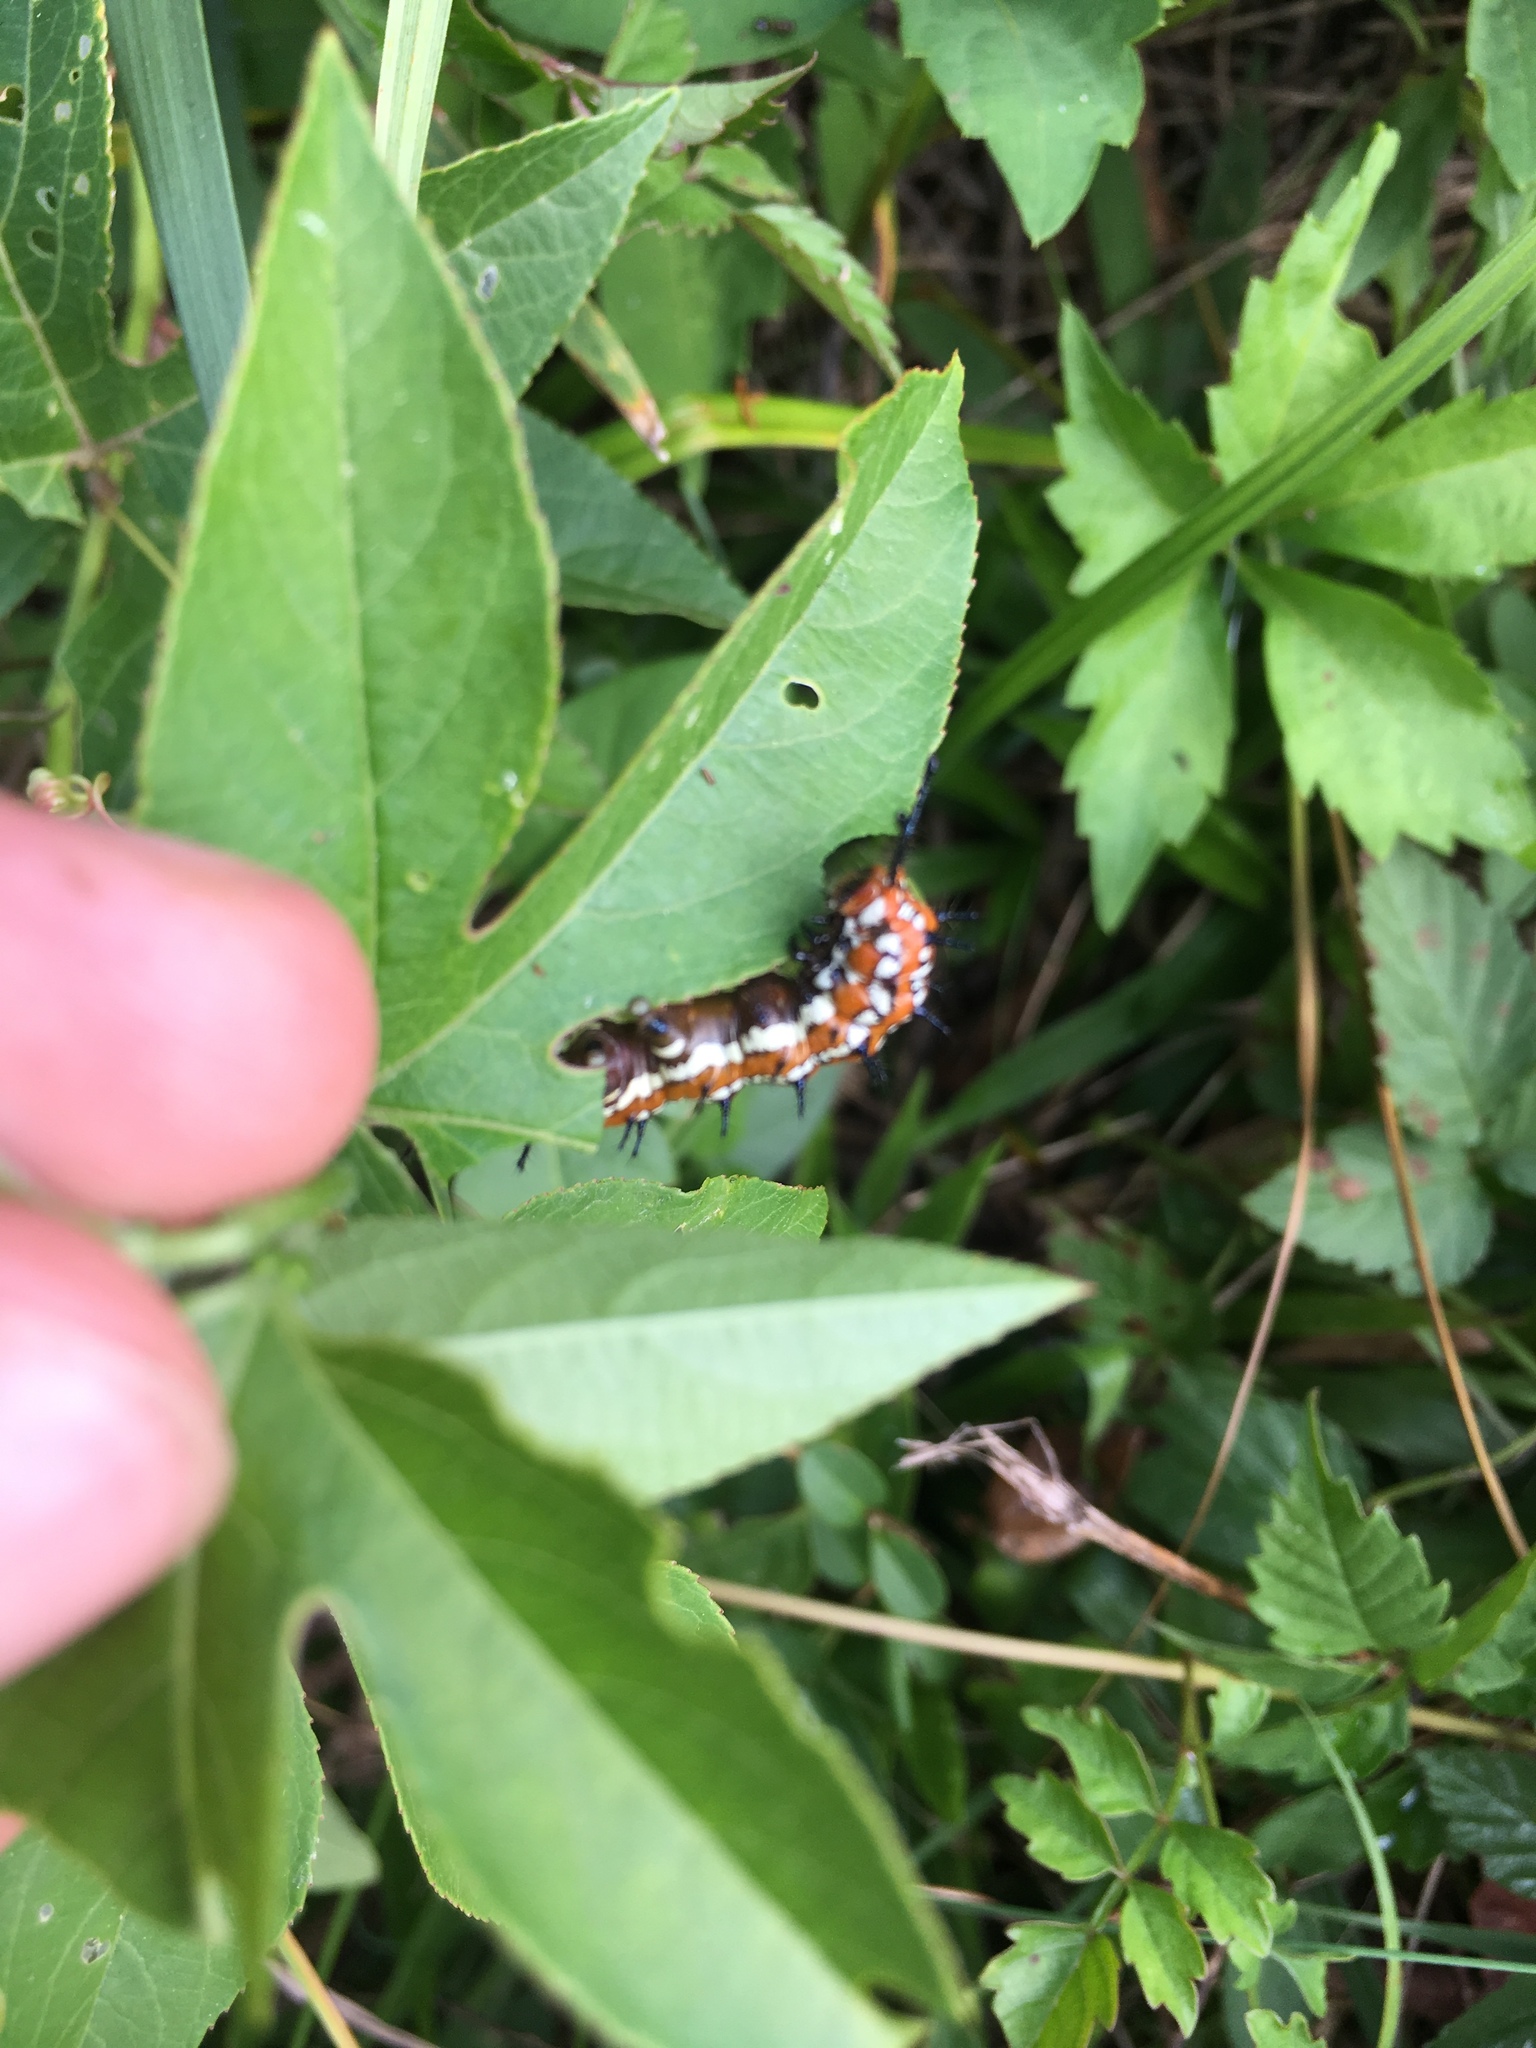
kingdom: Animalia
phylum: Arthropoda
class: Insecta
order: Lepidoptera
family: Nymphalidae
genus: Euptoieta
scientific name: Euptoieta claudia
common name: Variegated fritillary
